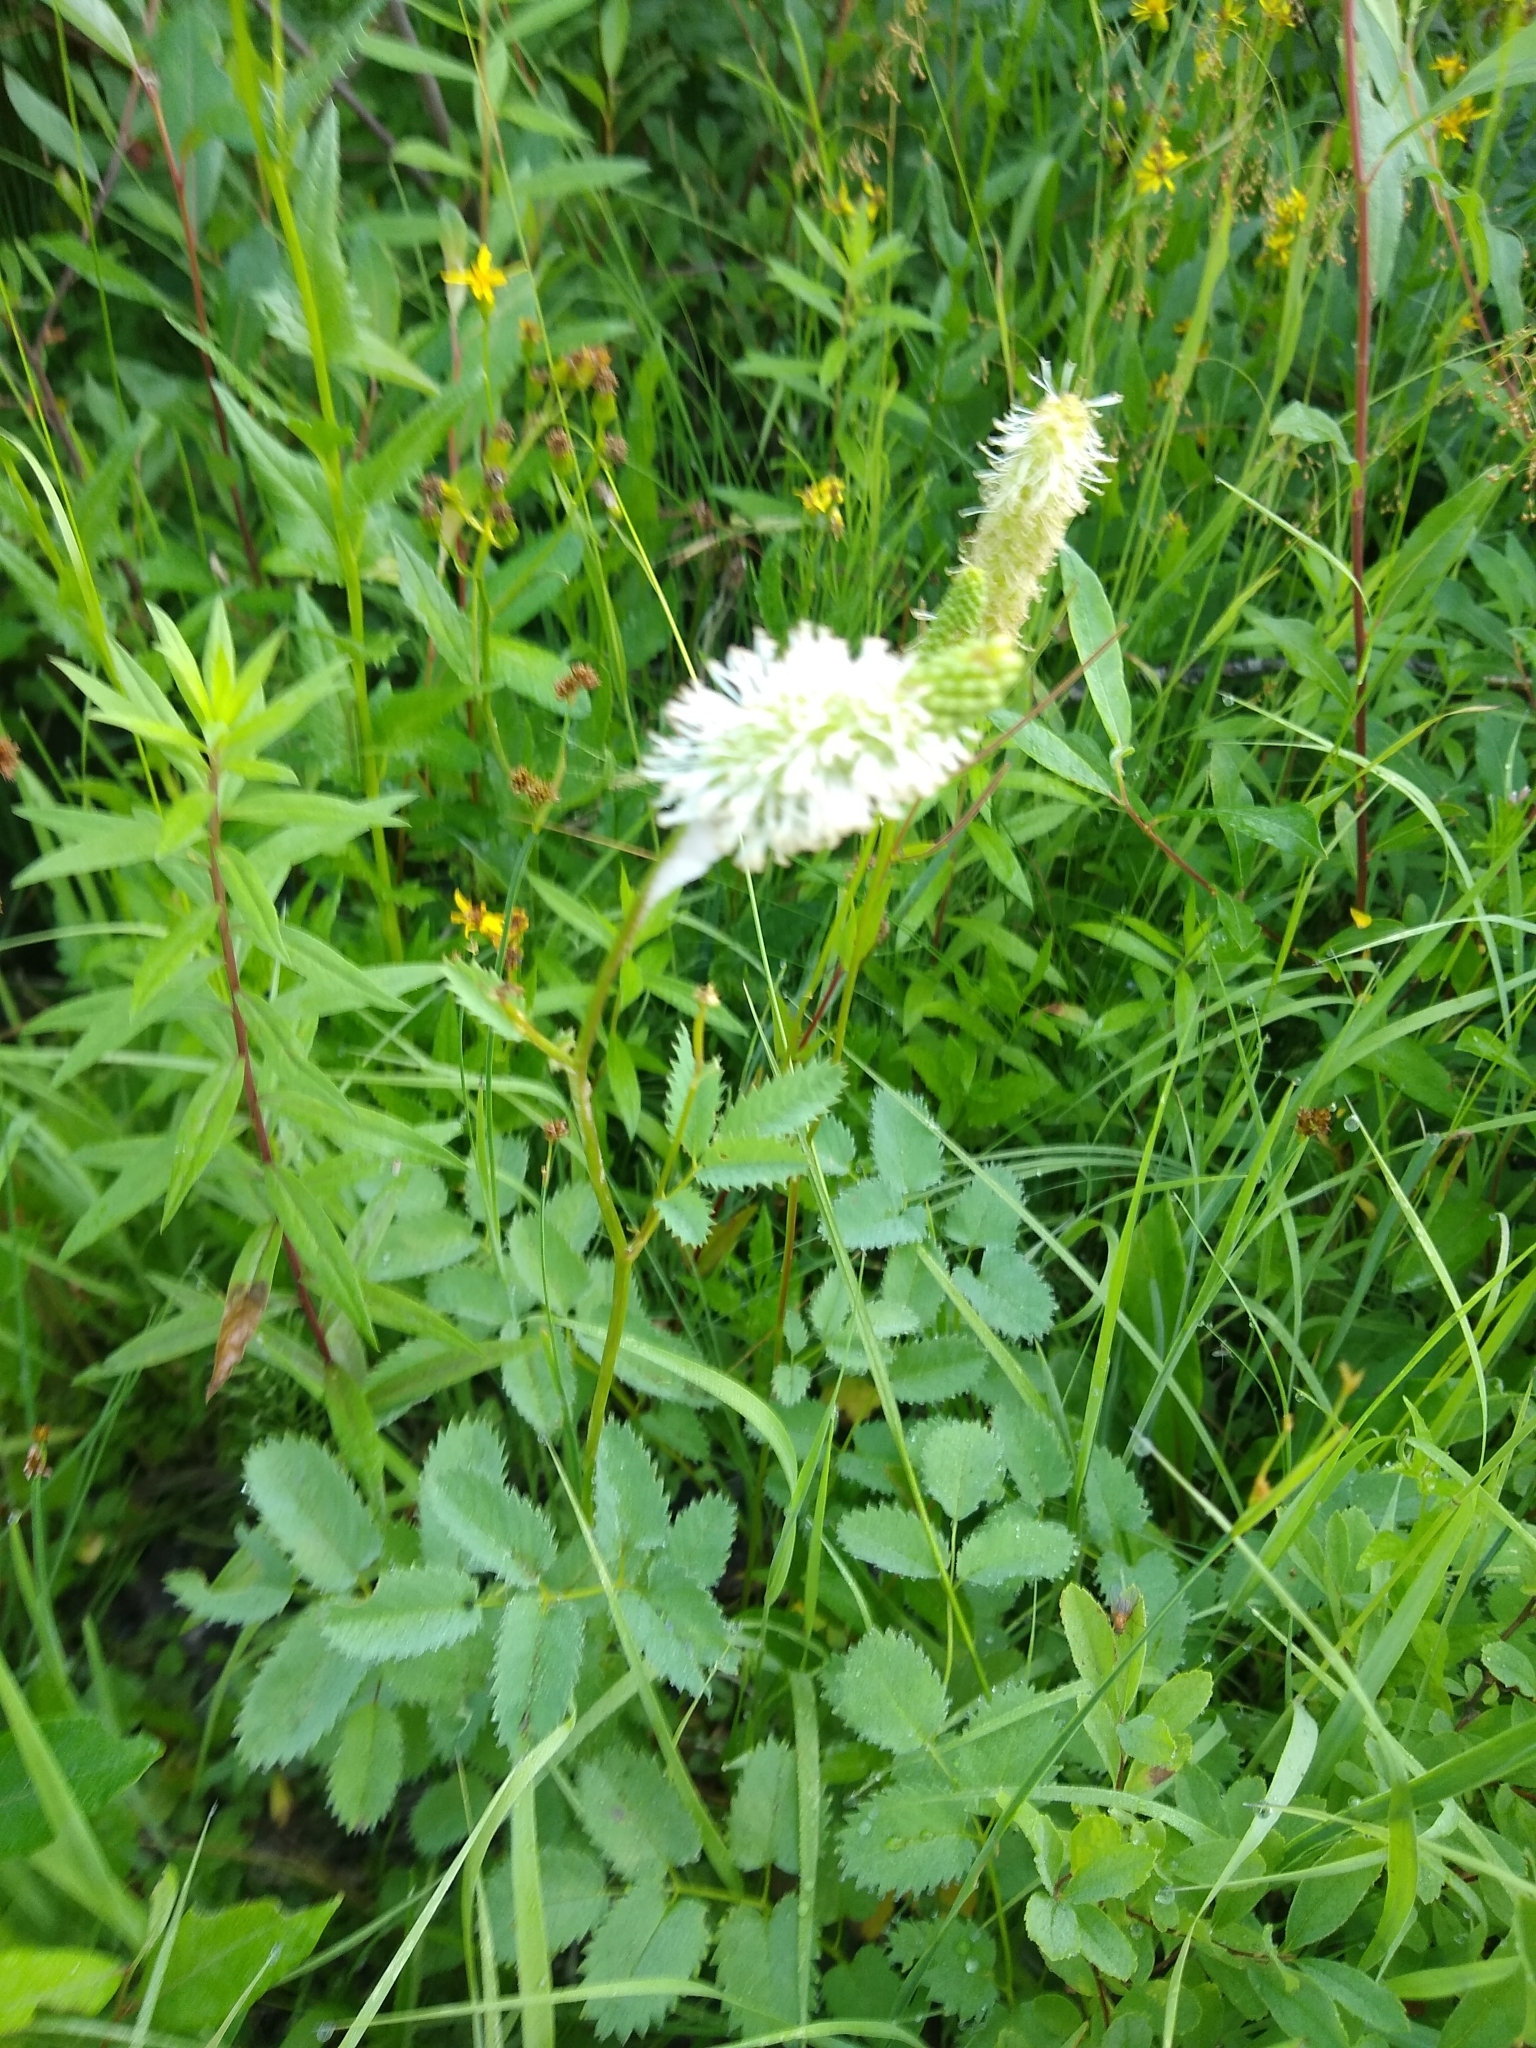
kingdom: Plantae
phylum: Tracheophyta
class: Magnoliopsida
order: Rosales
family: Rosaceae
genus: Sanguisorba
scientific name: Sanguisorba stipulata
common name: Sitka burnet
